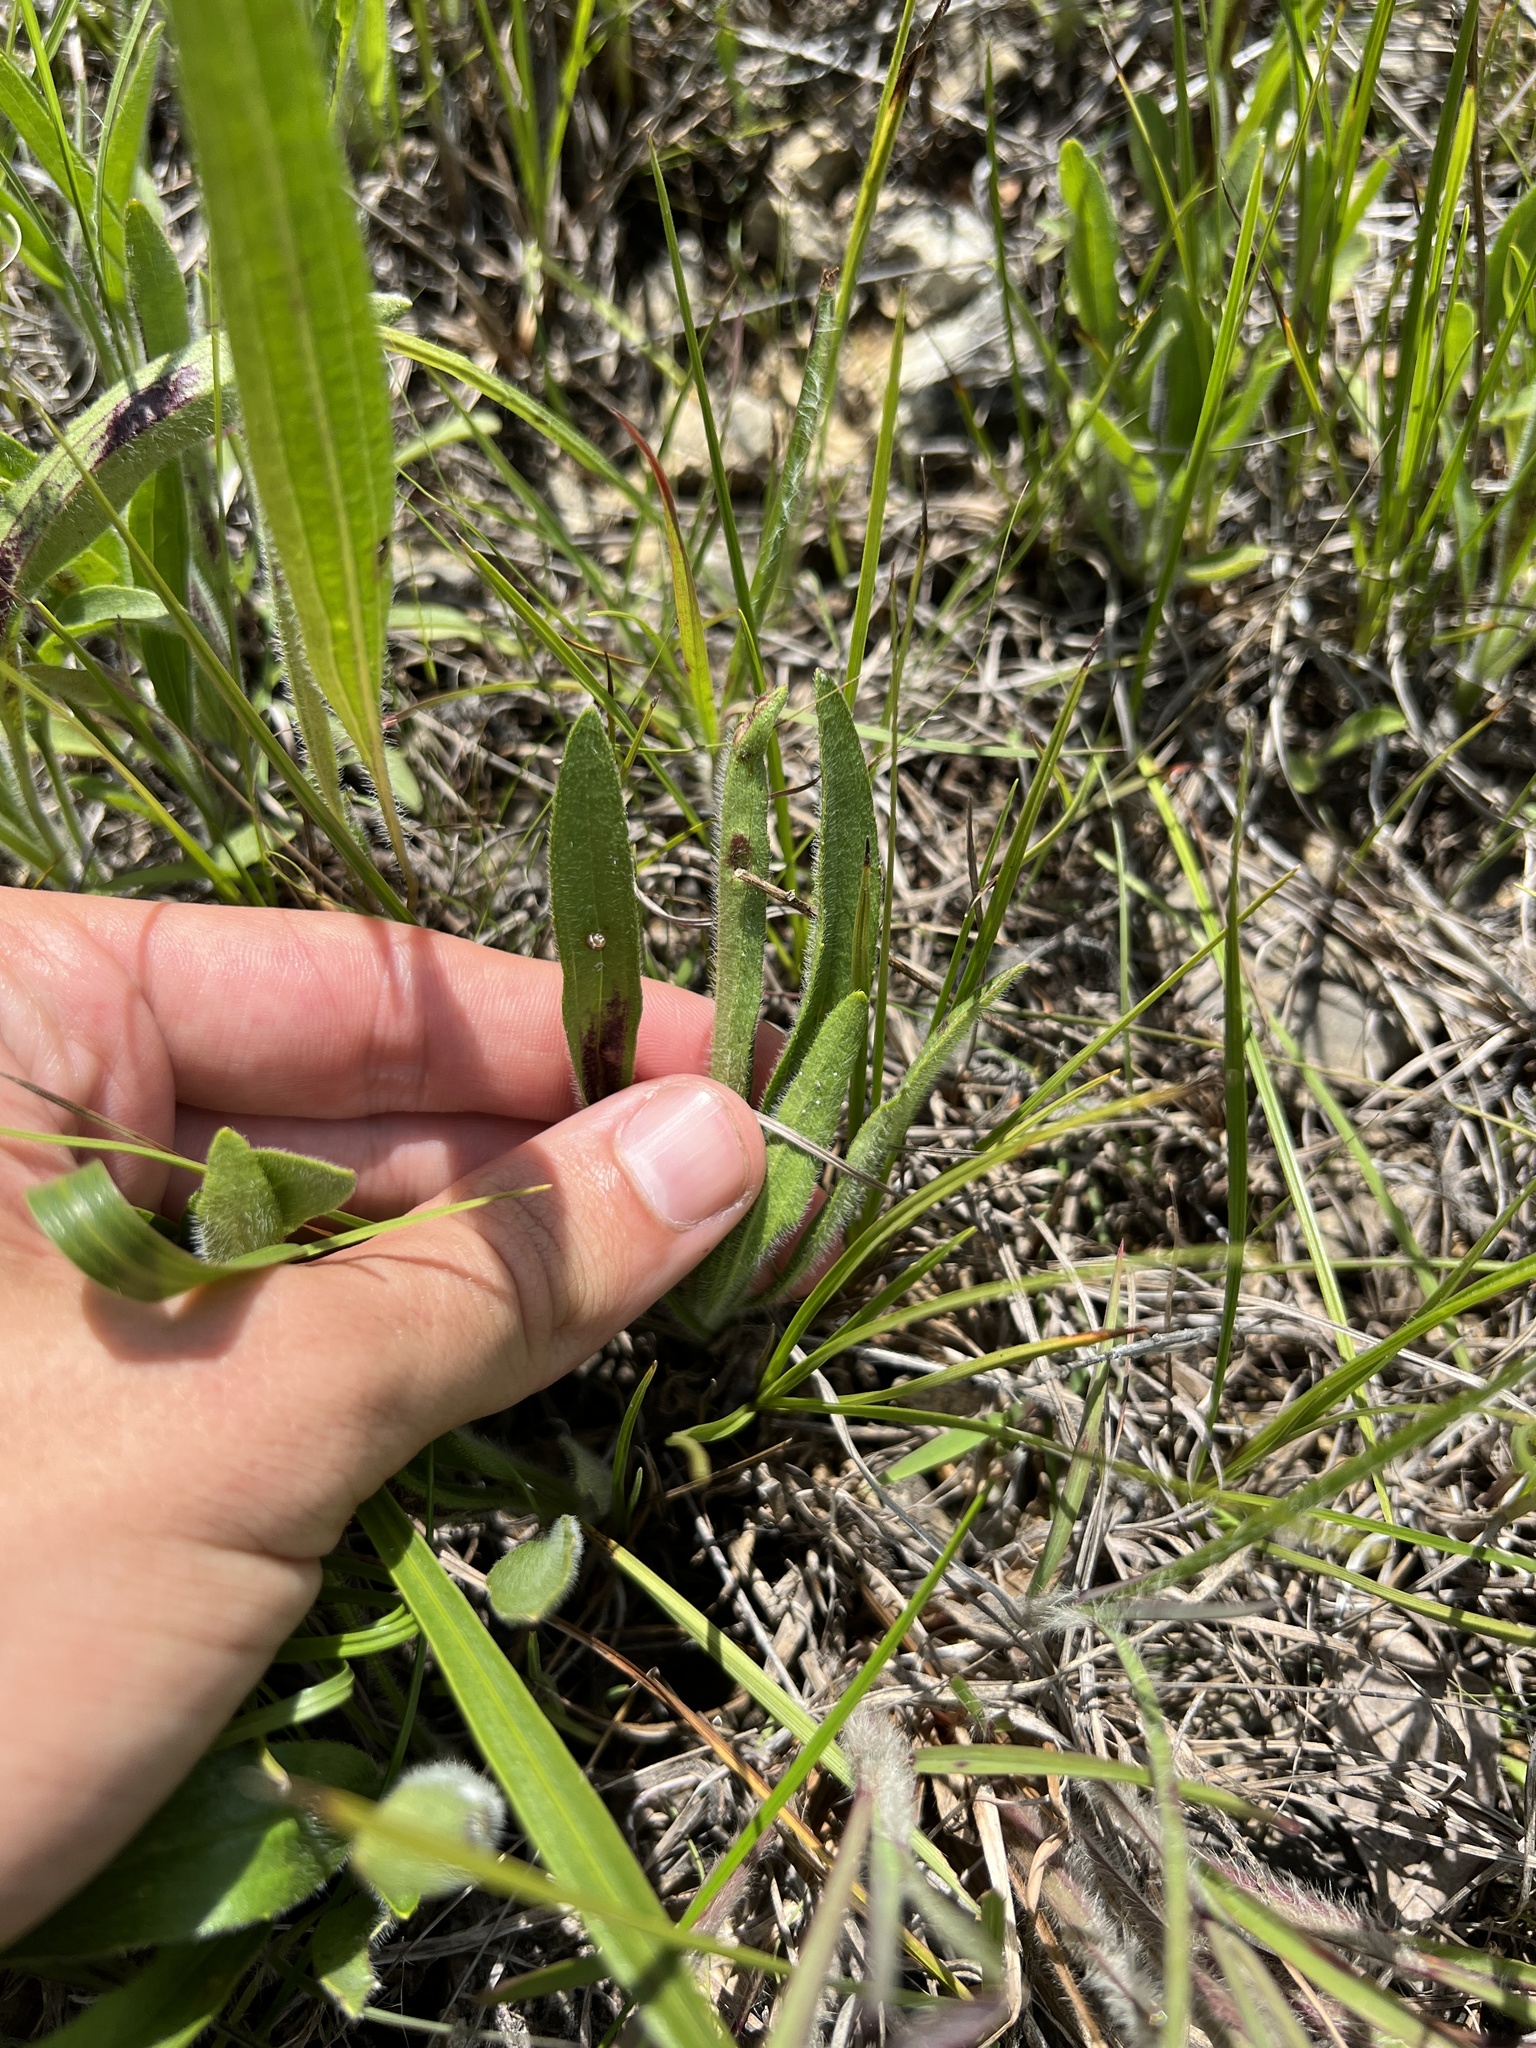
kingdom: Plantae
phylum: Tracheophyta
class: Magnoliopsida
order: Asterales
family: Asteraceae
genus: Rudbeckia
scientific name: Rudbeckia missouriensis
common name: Missouri coneflower
